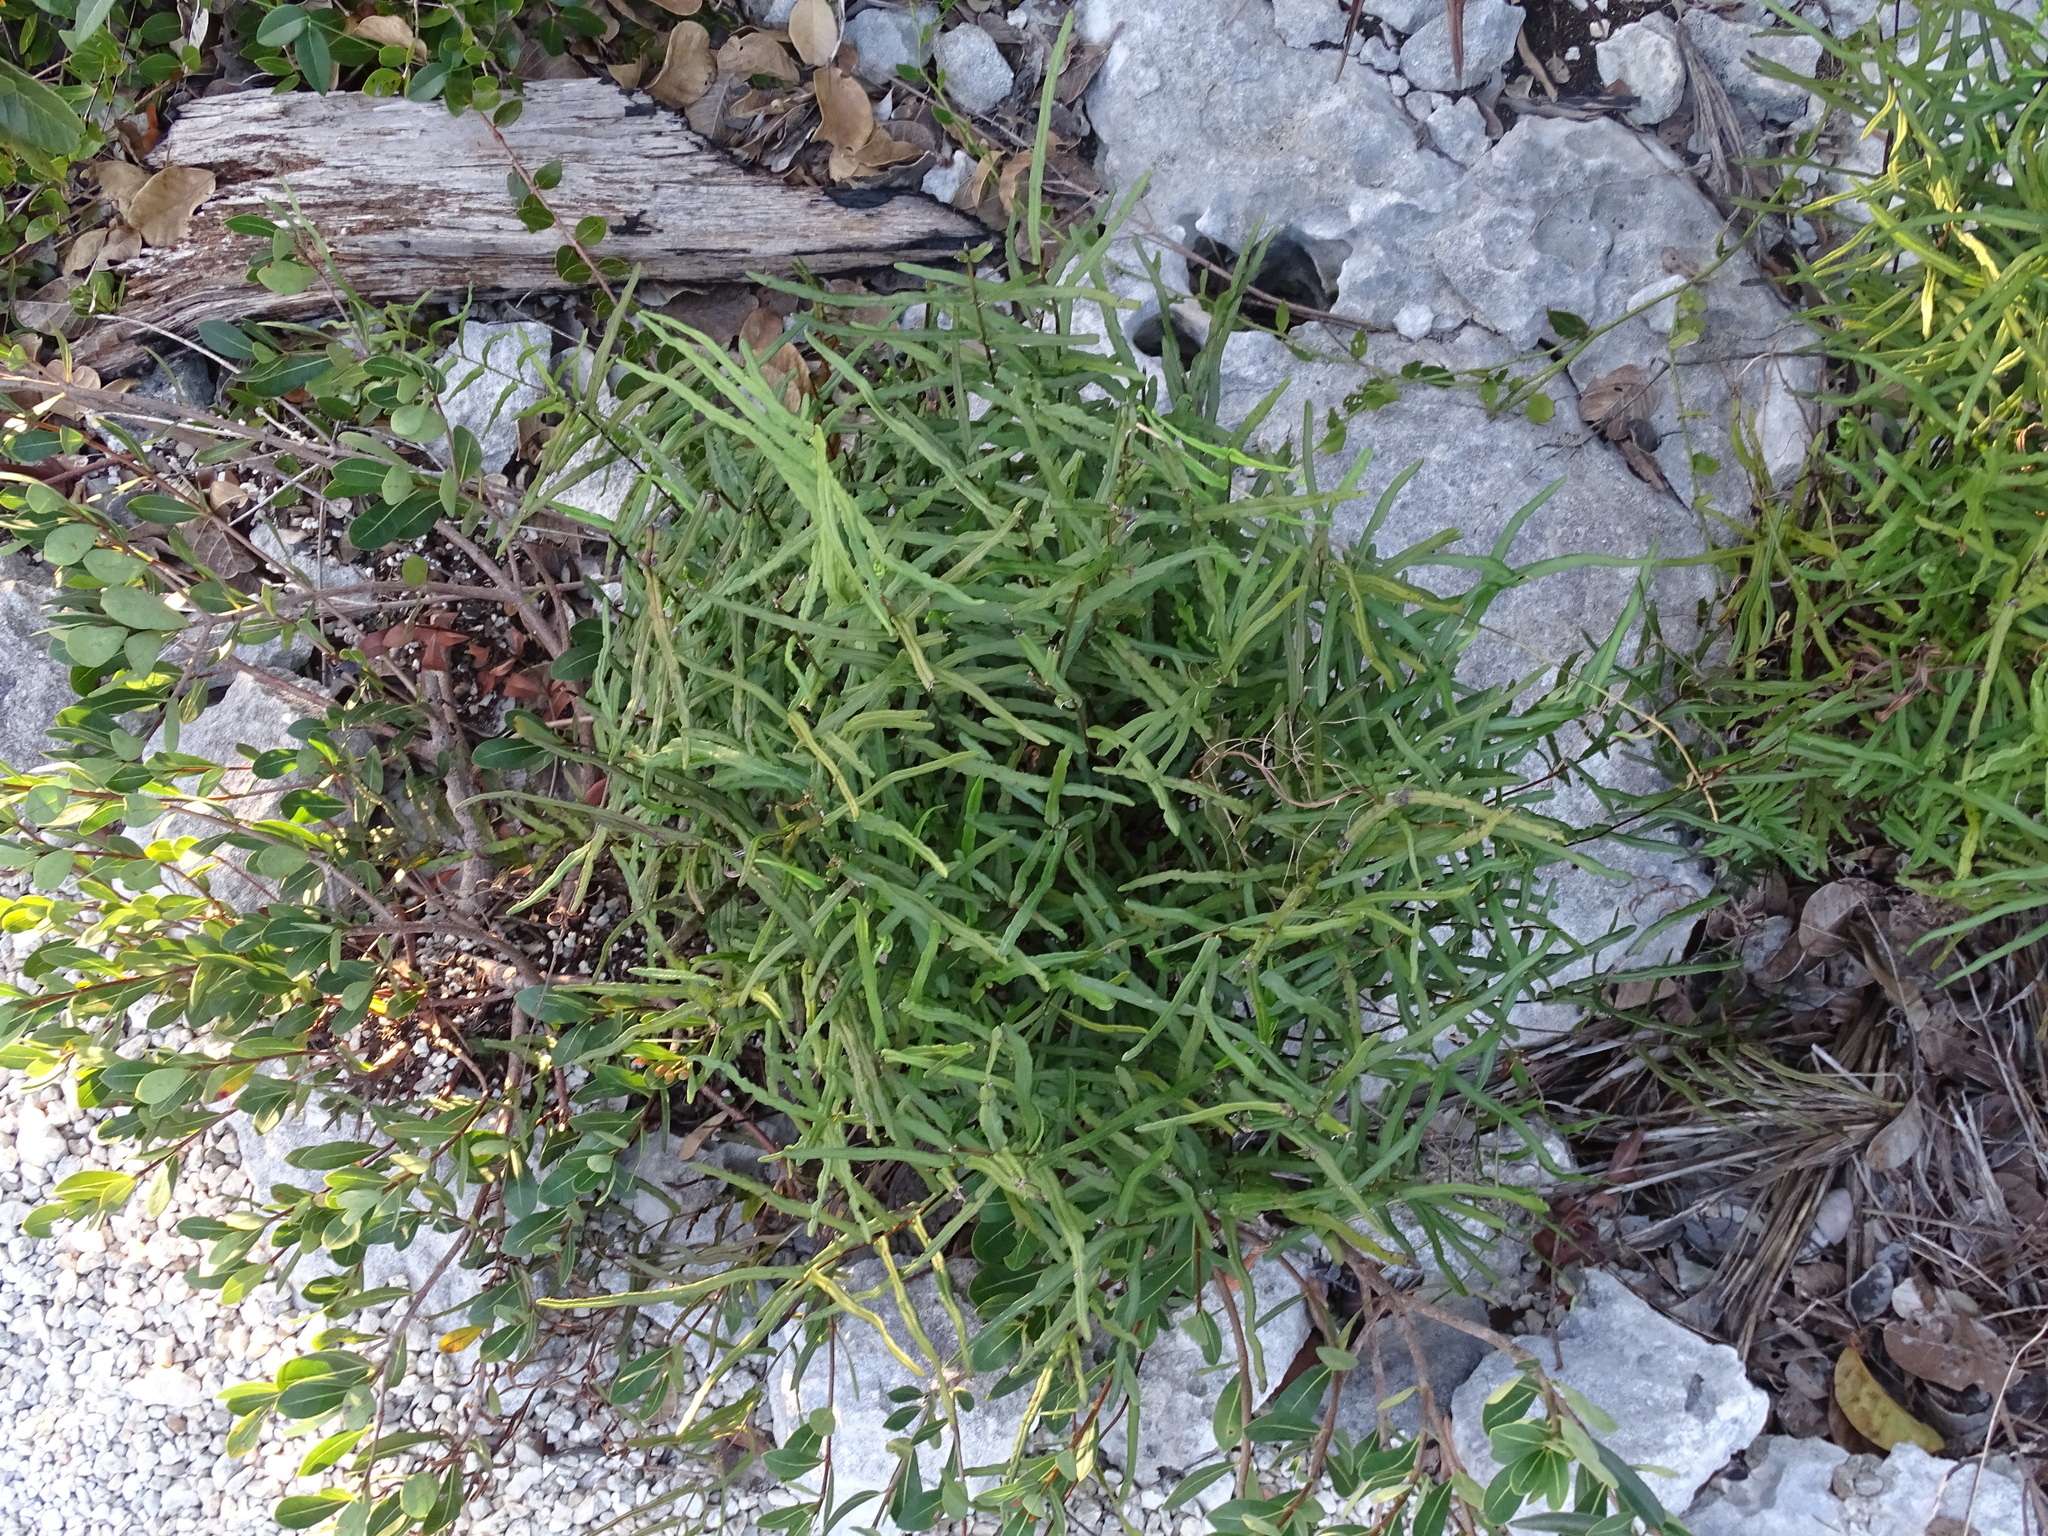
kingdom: Plantae
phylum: Tracheophyta
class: Polypodiopsida
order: Polypodiales
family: Pteridaceae
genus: Pteris
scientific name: Pteris bahamensis
